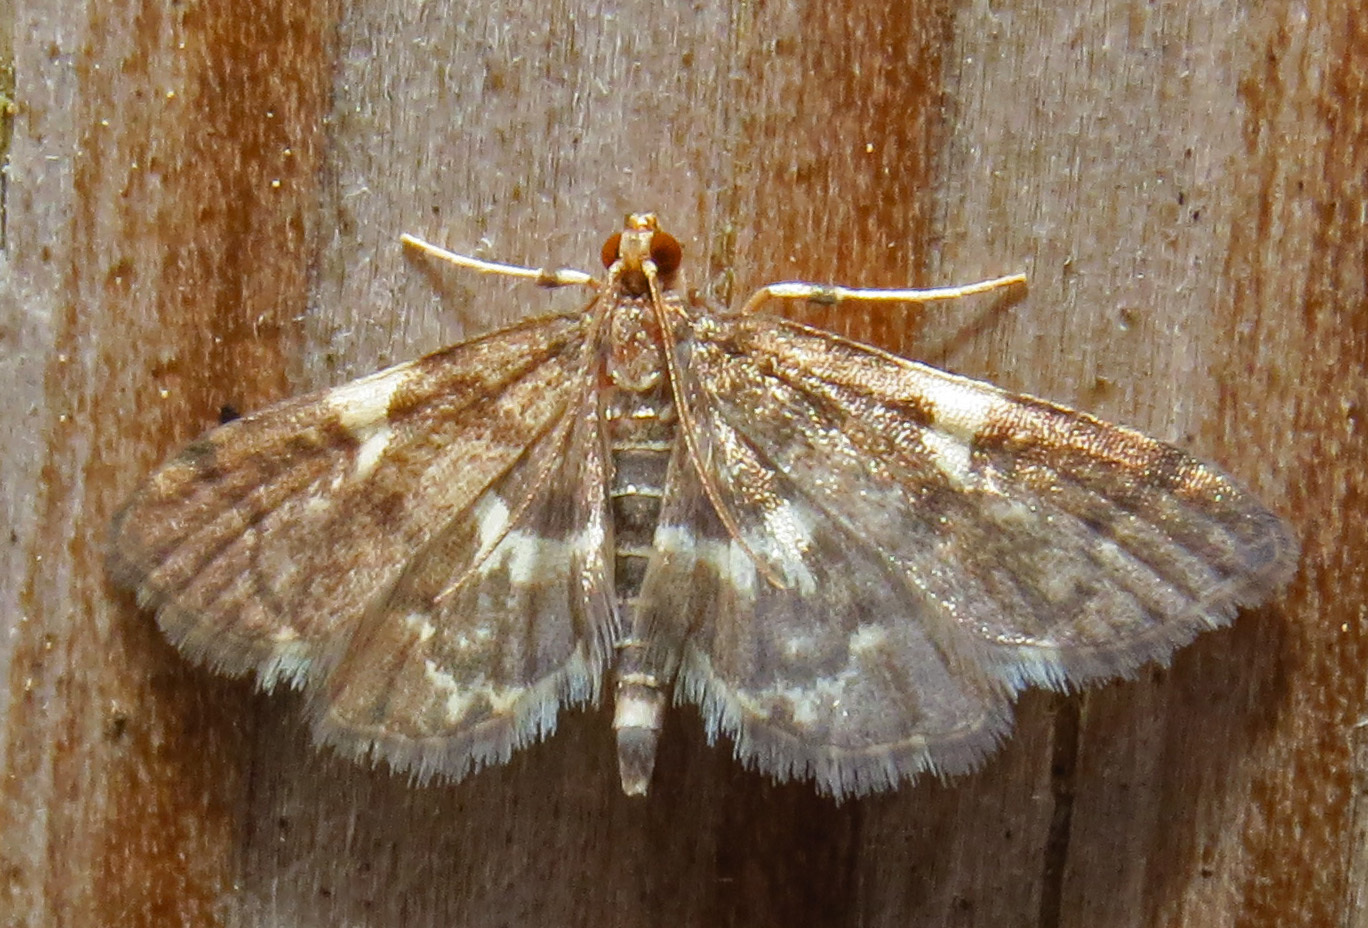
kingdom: Animalia
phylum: Arthropoda
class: Insecta
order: Lepidoptera
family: Crambidae
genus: Anageshna
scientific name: Anageshna primordialis
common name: Yellow-spotted webworm moth
